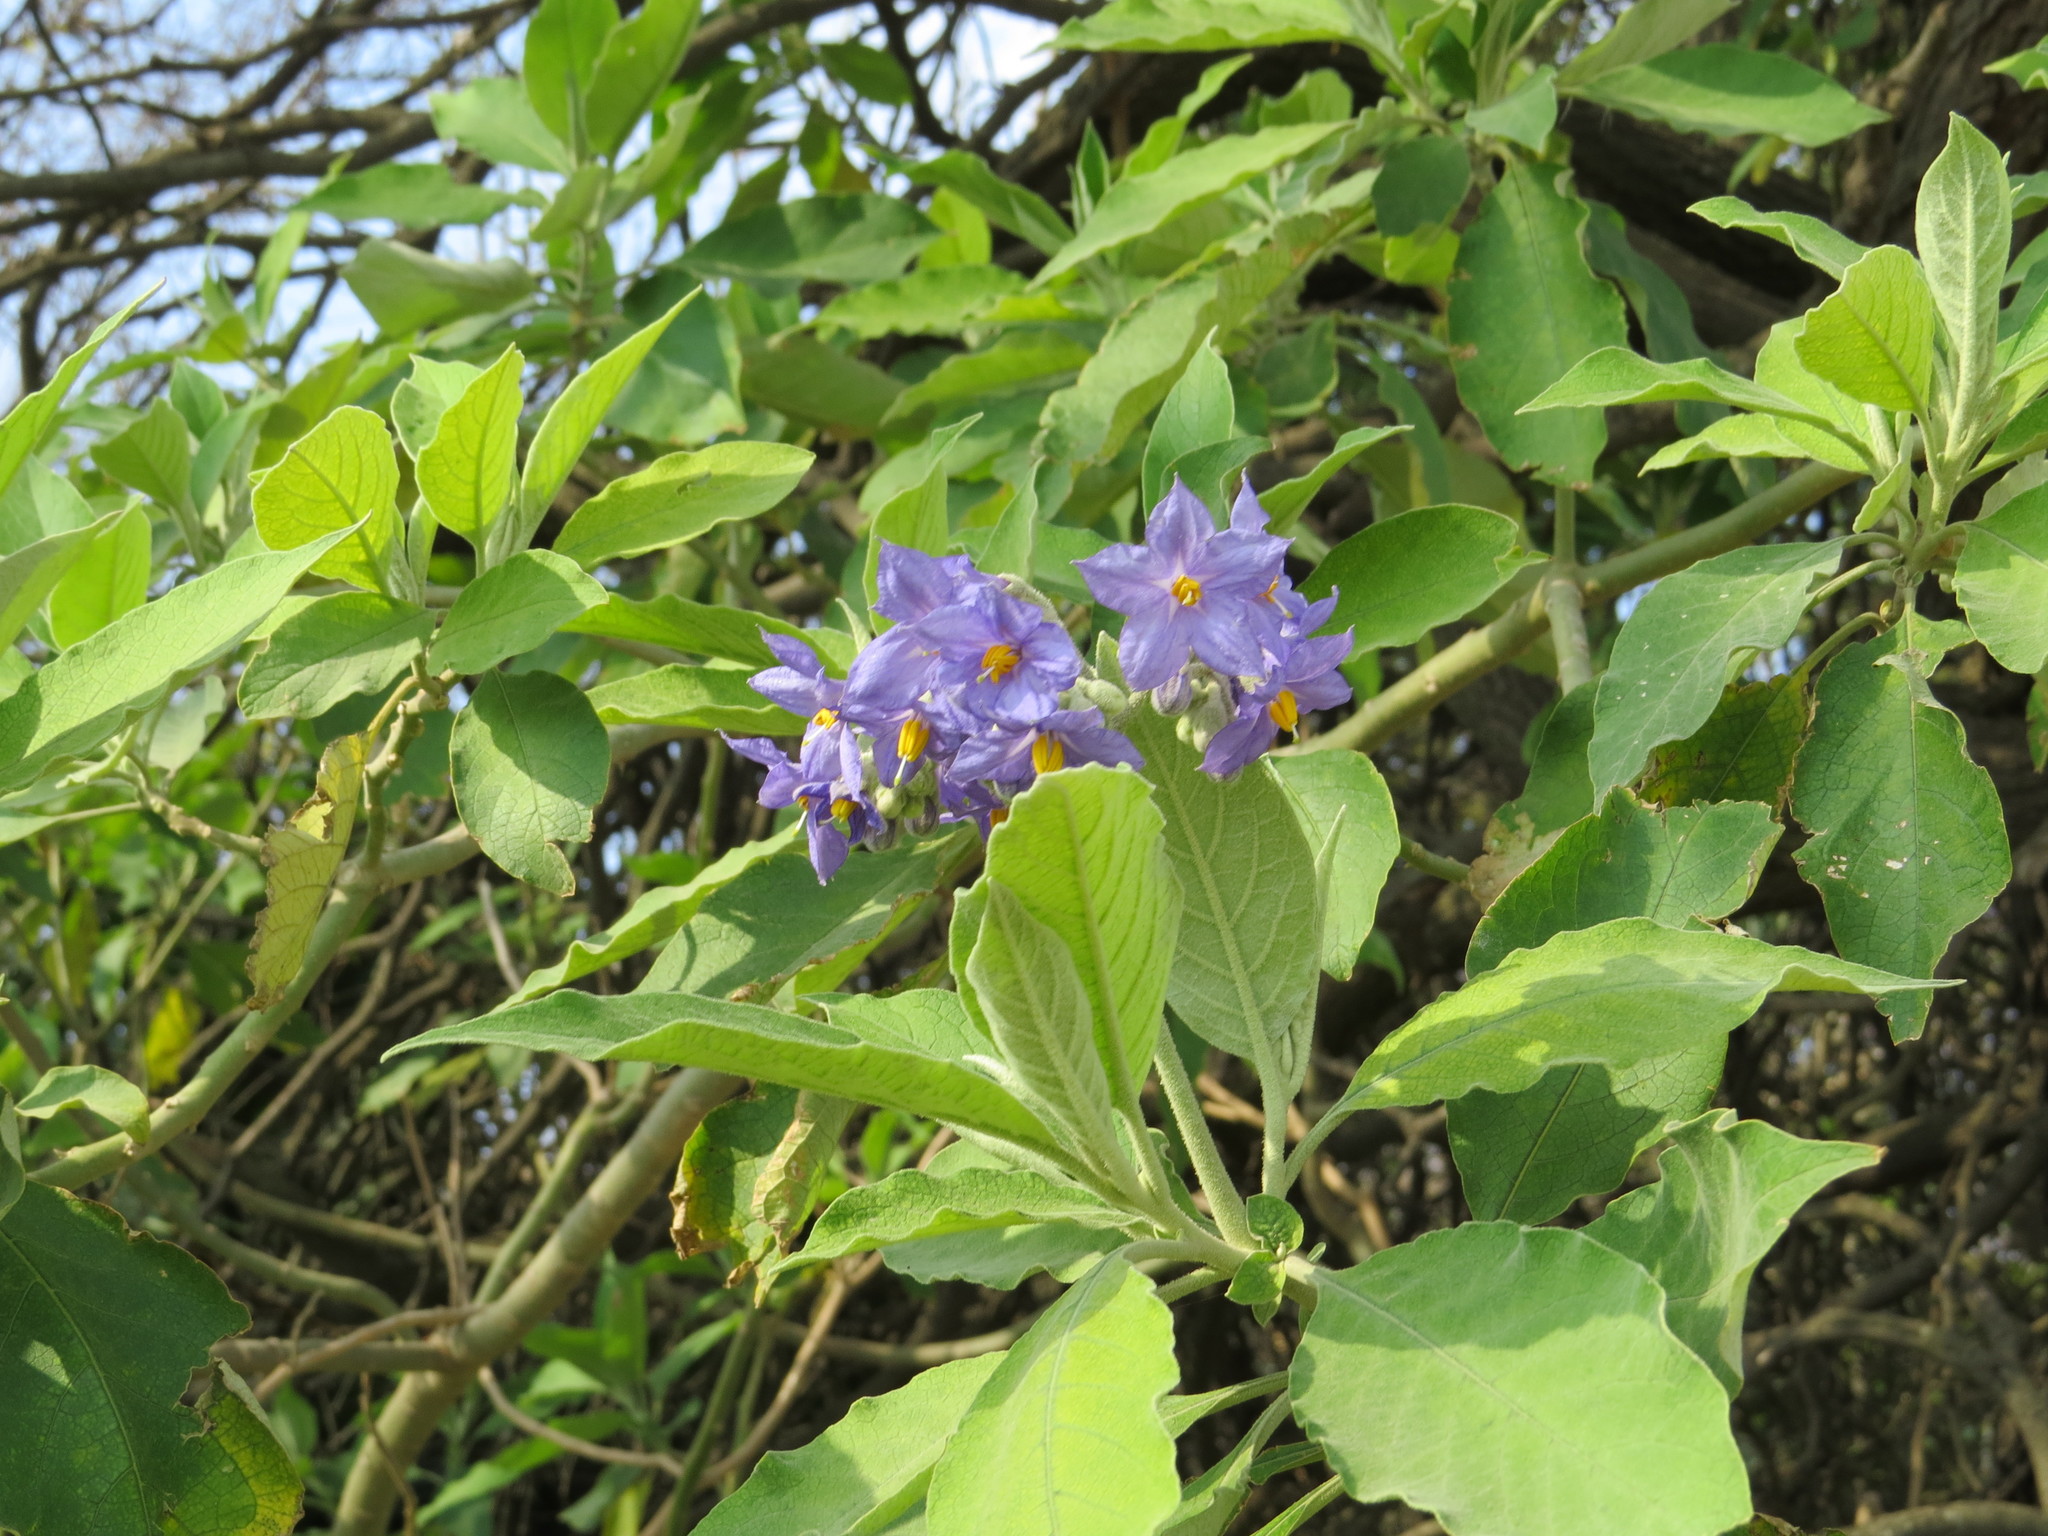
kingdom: Plantae
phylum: Tracheophyta
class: Magnoliopsida
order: Solanales
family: Solanaceae
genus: Solanum
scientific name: Solanum granulosoleprosum
